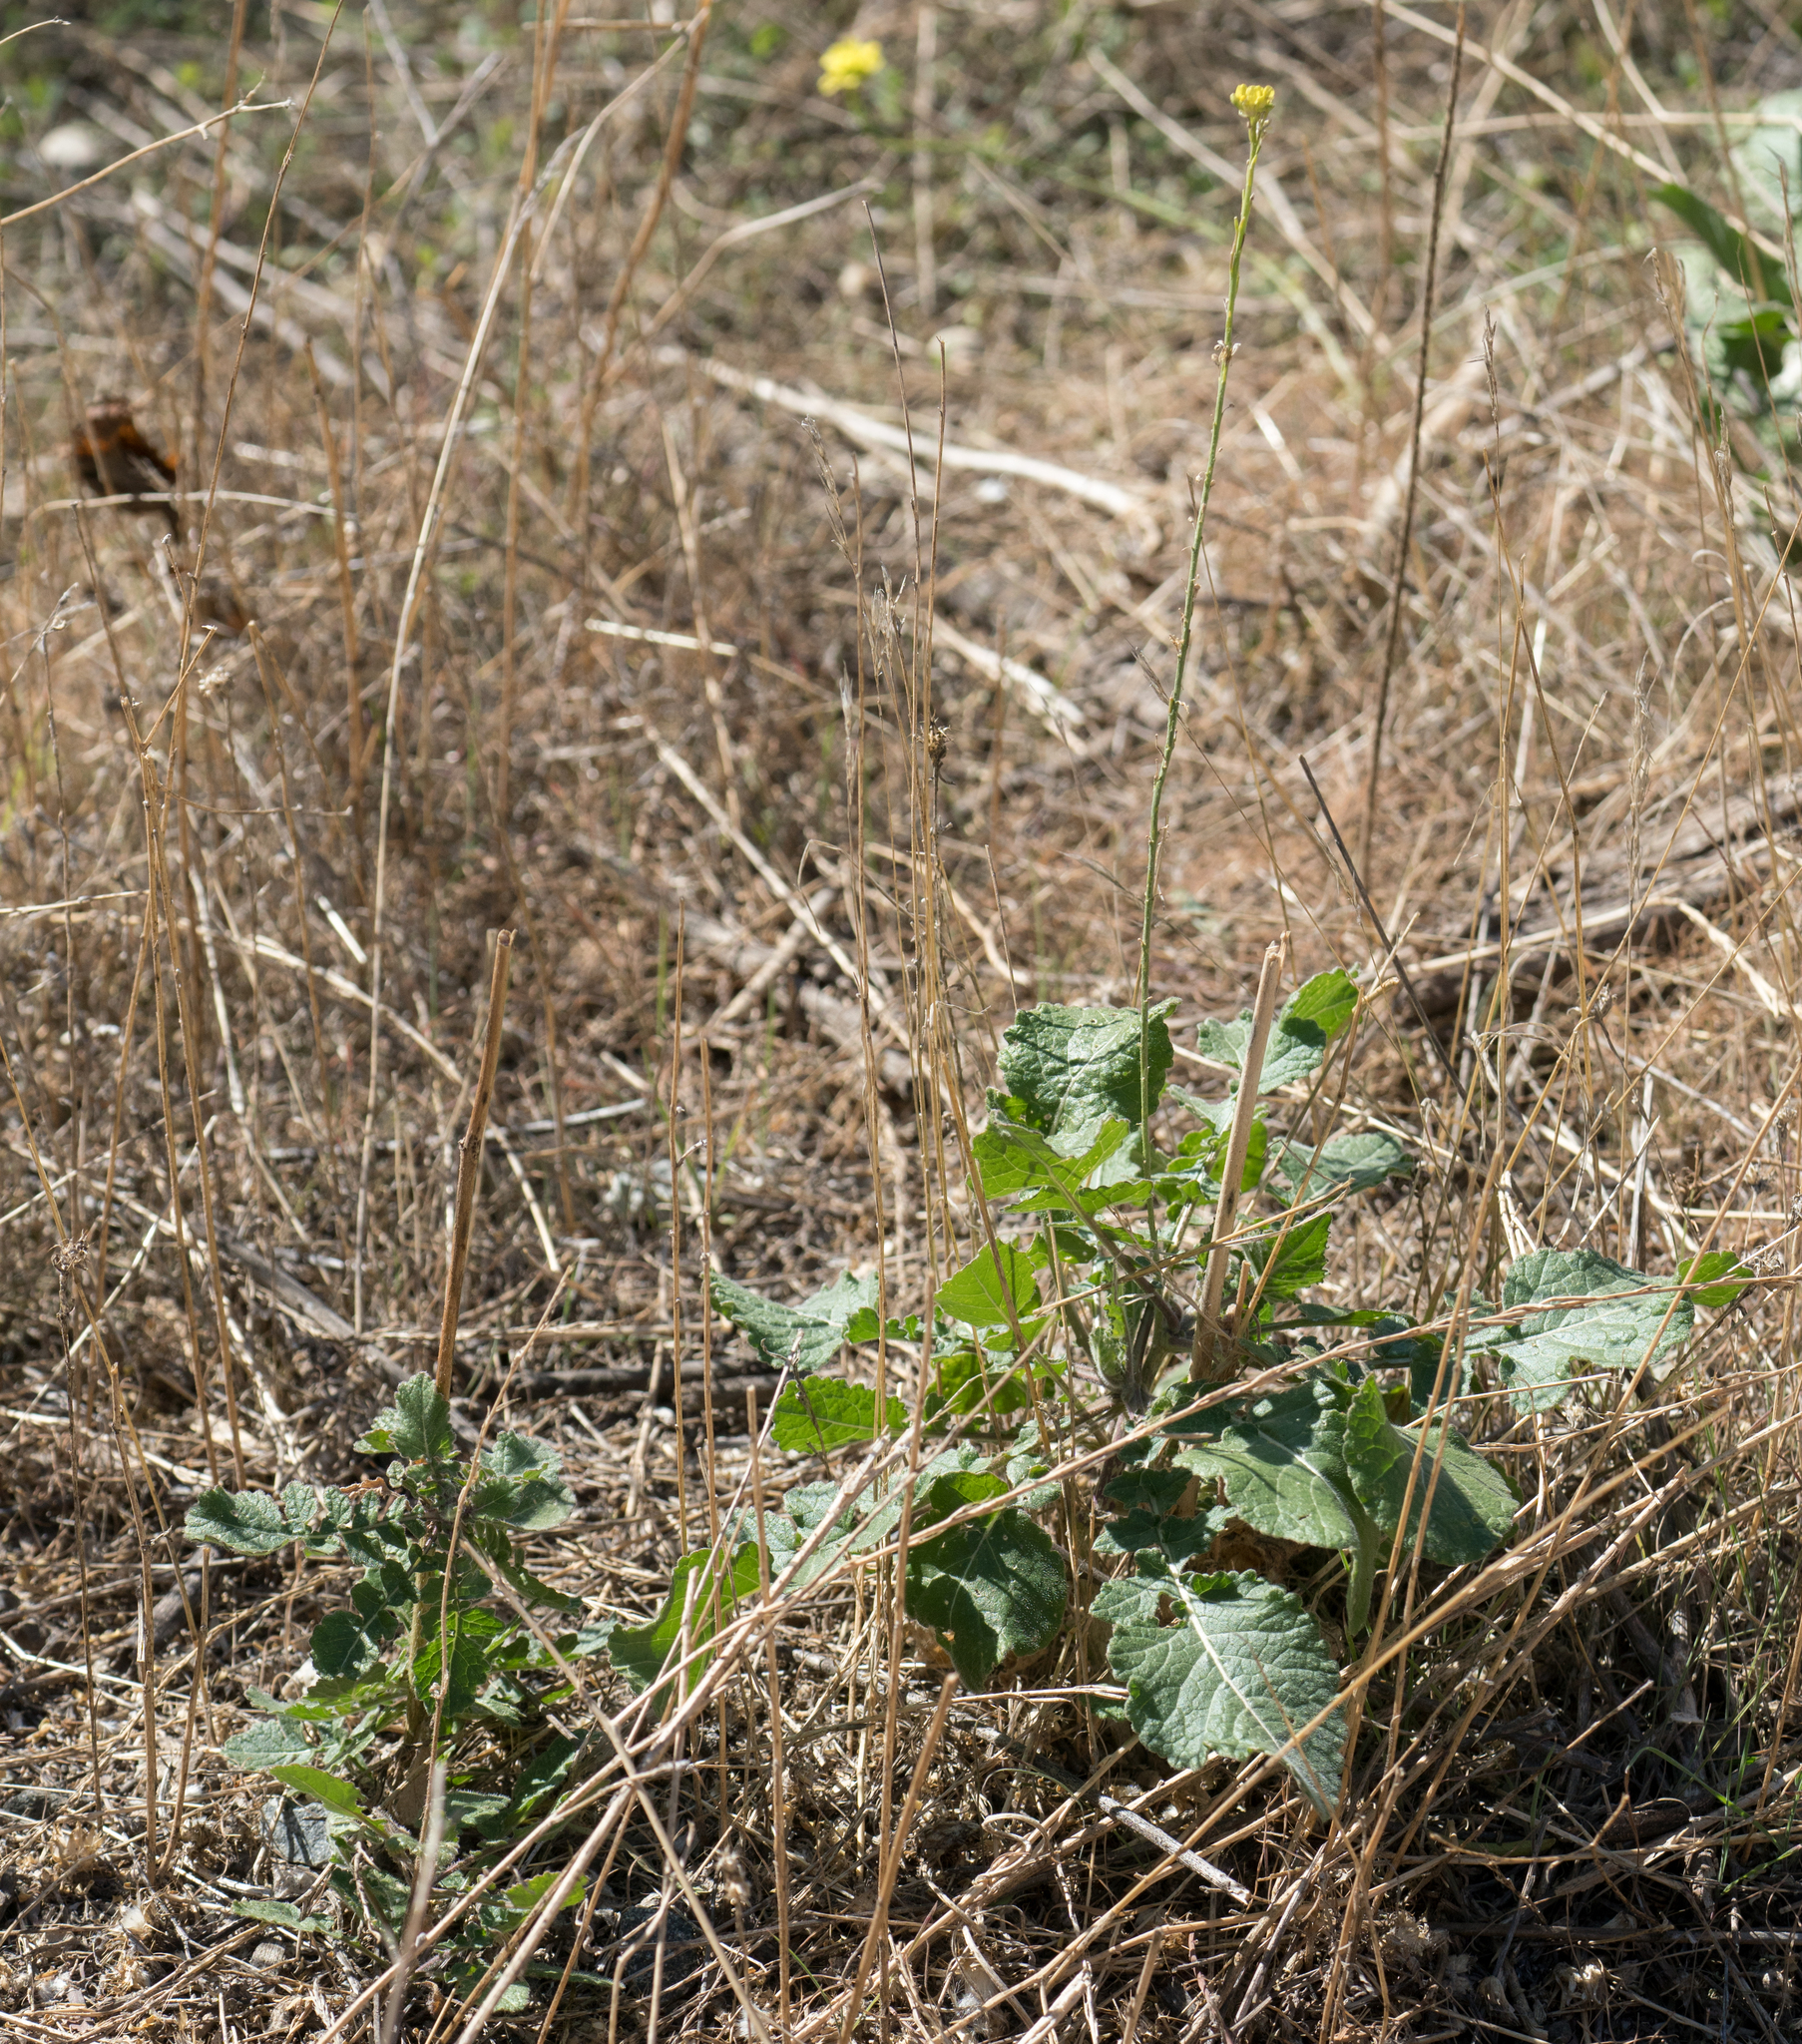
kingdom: Plantae
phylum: Tracheophyta
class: Magnoliopsida
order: Brassicales
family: Brassicaceae
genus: Hirschfeldia
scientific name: Hirschfeldia incana
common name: Hoary mustard
